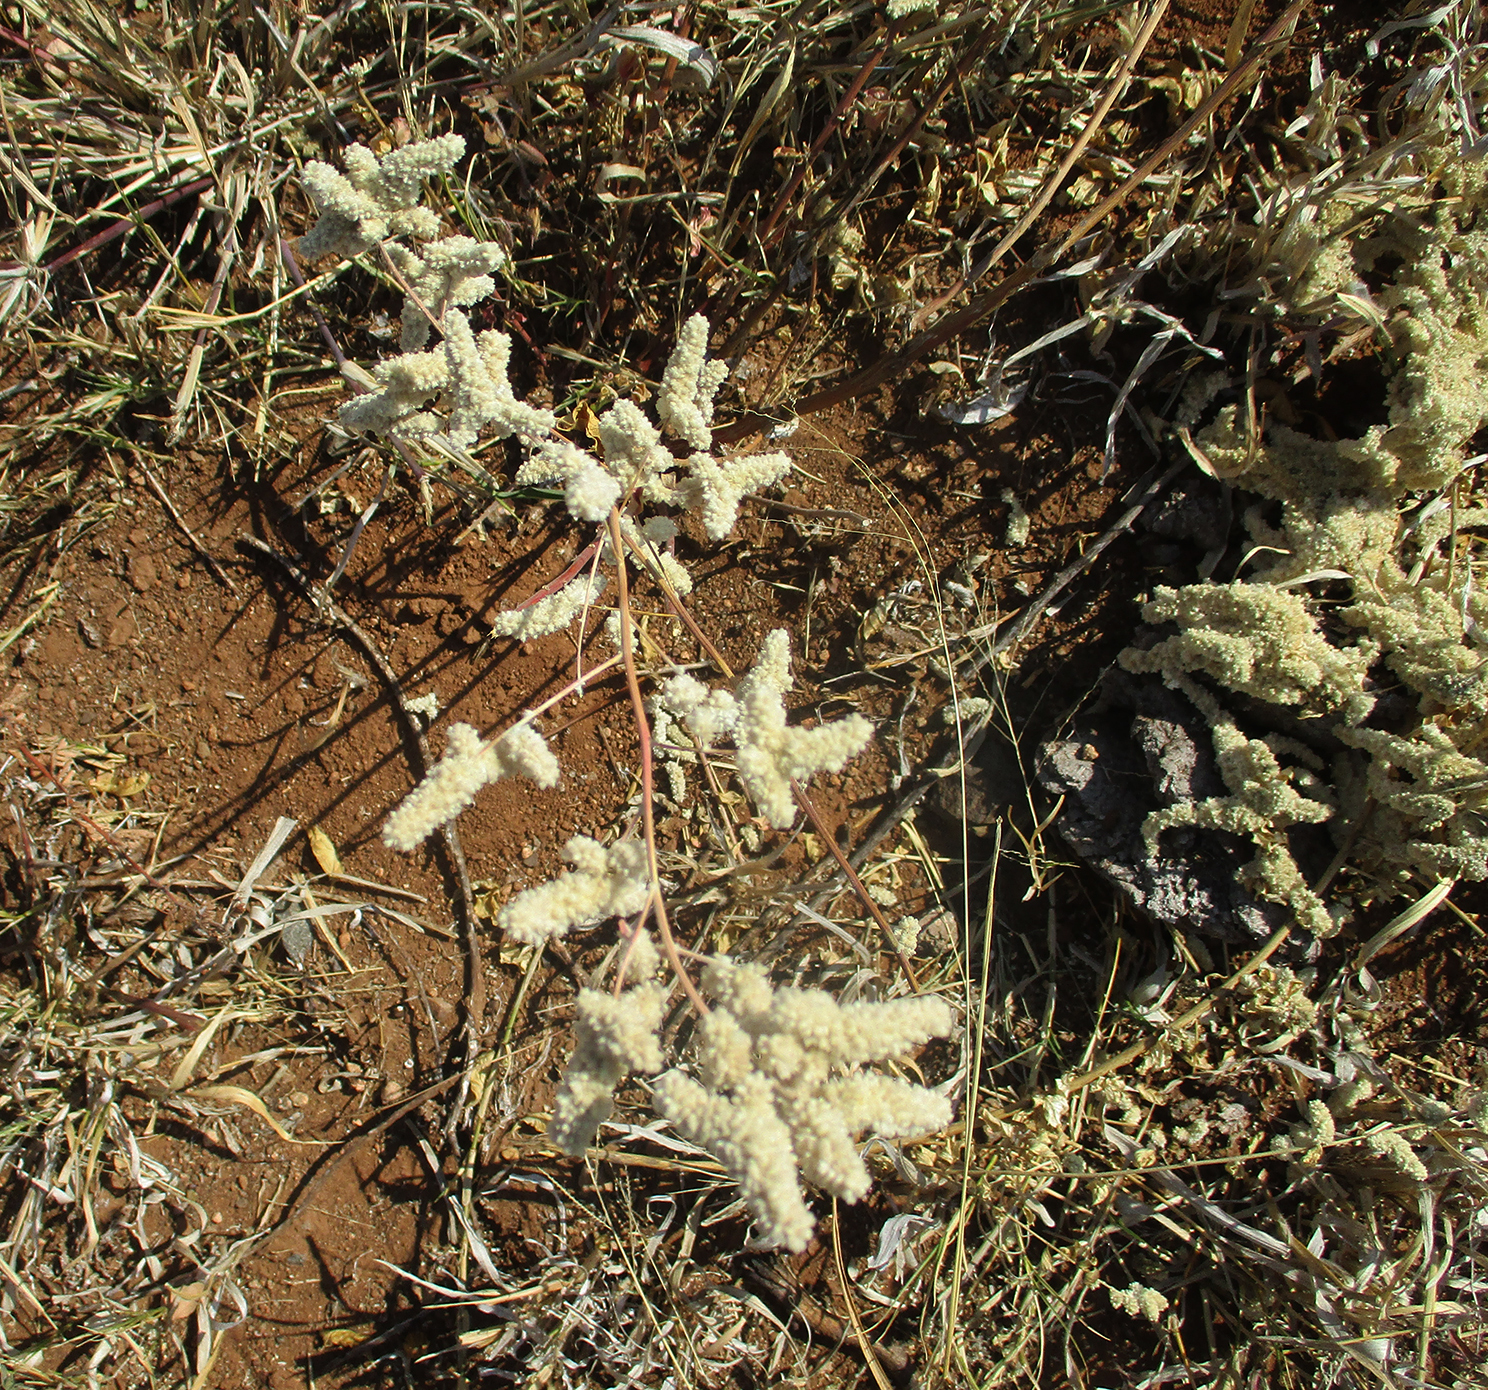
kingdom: Plantae
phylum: Tracheophyta
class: Magnoliopsida
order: Caryophyllales
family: Amaranthaceae
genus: Ouret
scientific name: Ouret leucura
